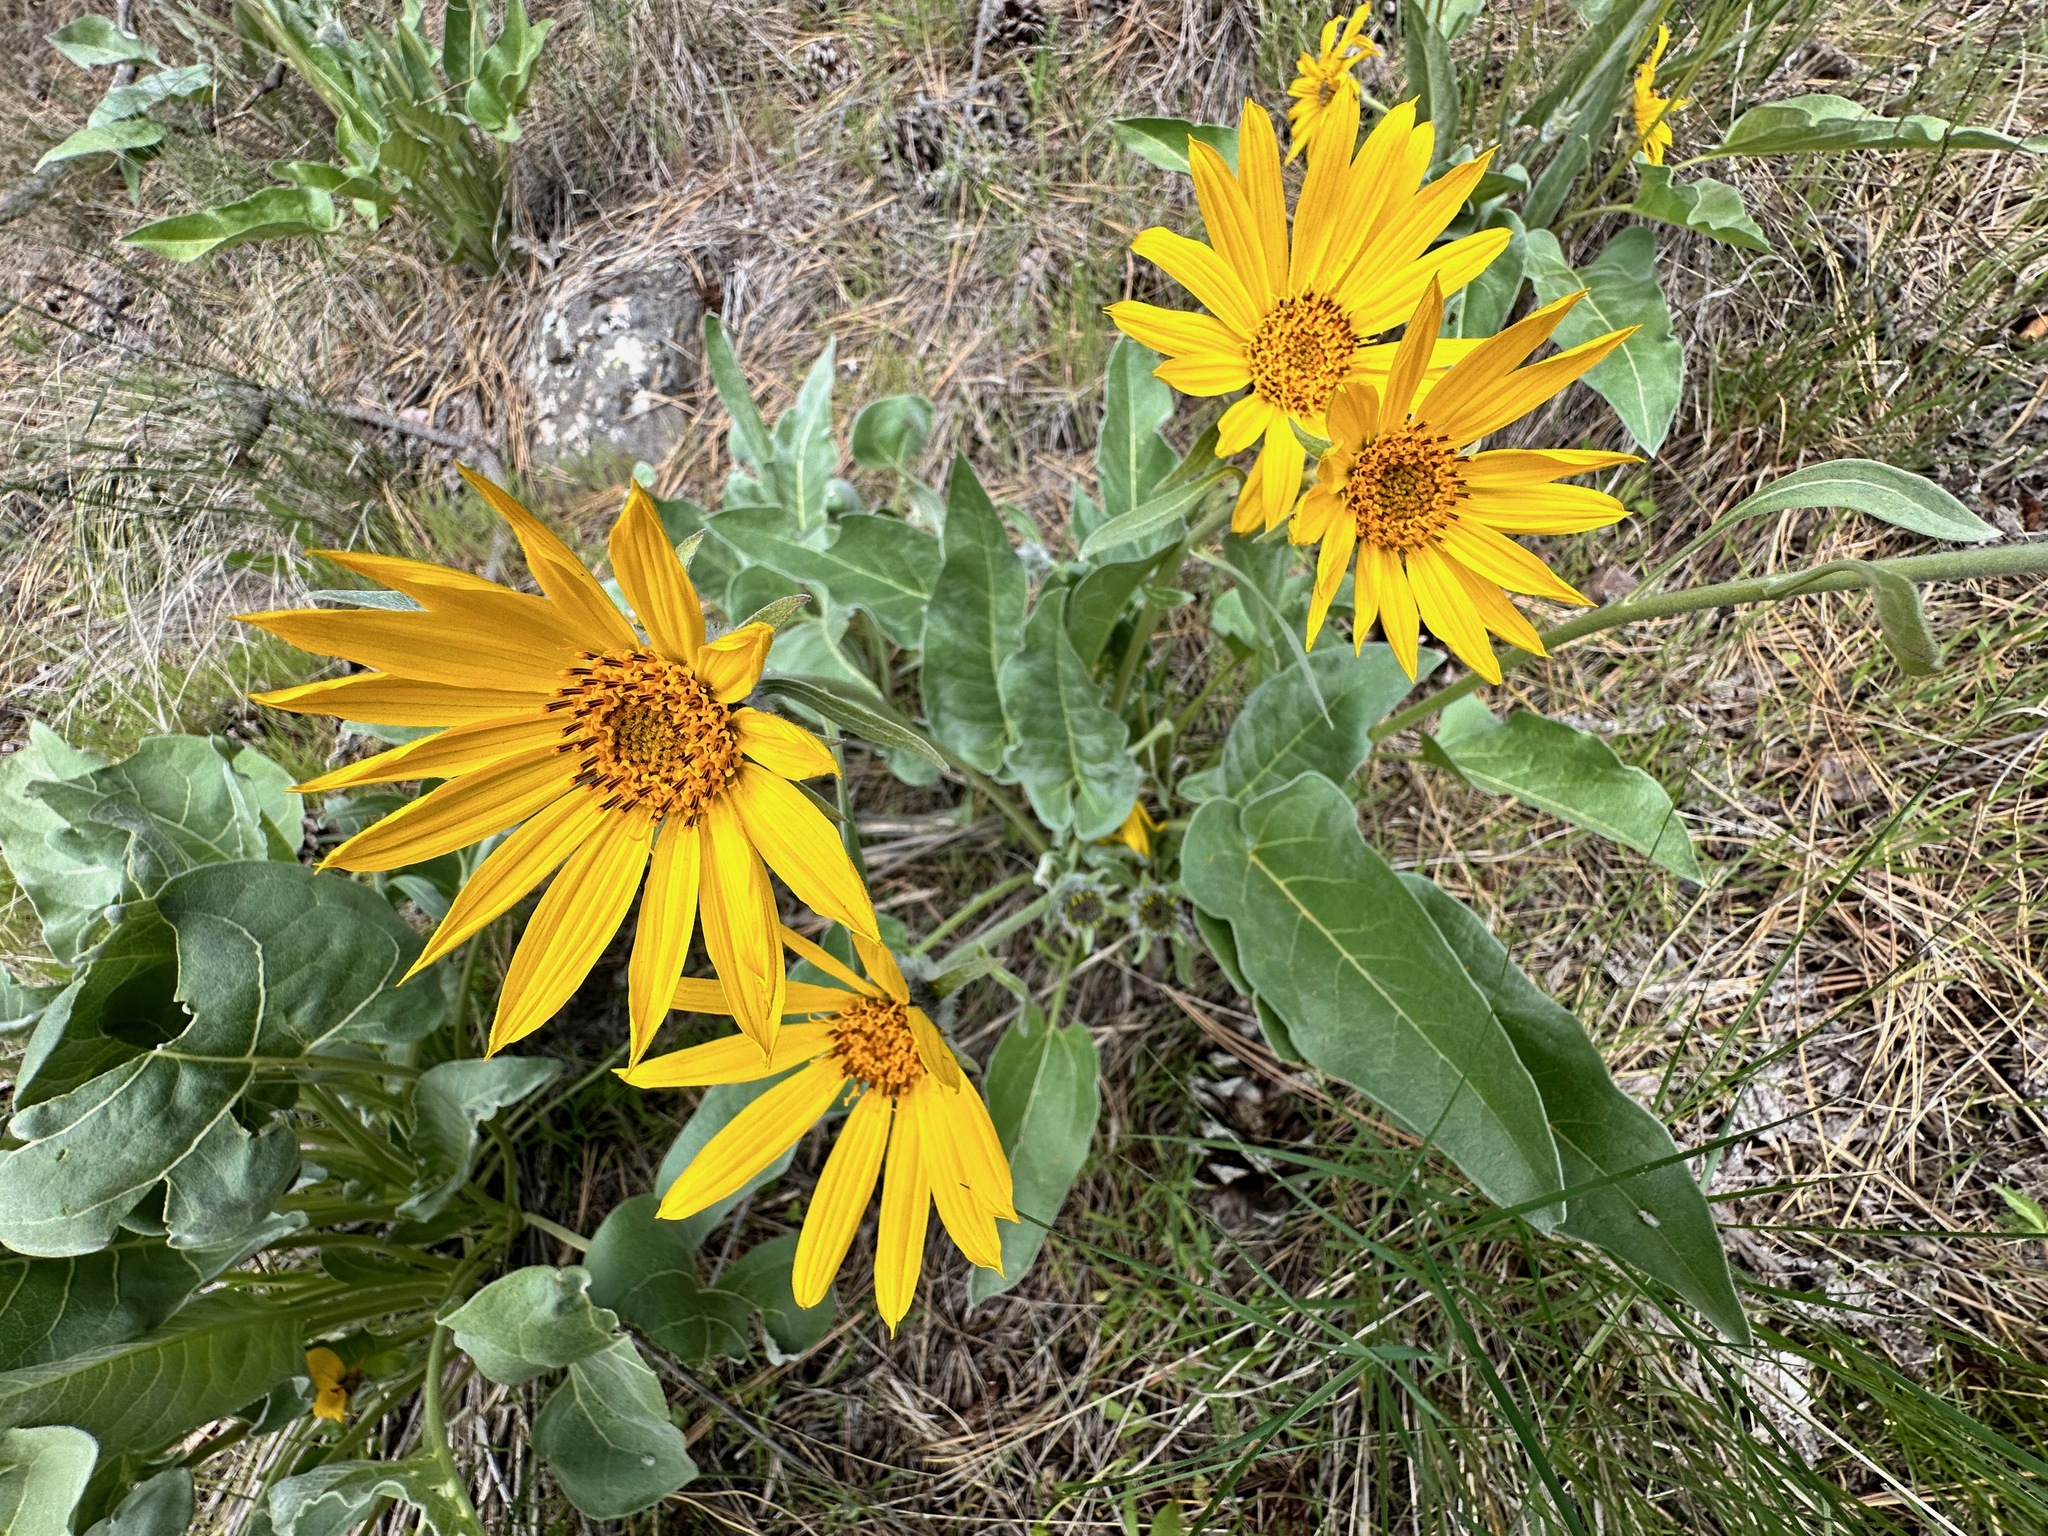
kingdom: Plantae
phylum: Tracheophyta
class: Magnoliopsida
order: Asterales
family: Asteraceae
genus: Wyethia
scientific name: Wyethia sagittata
